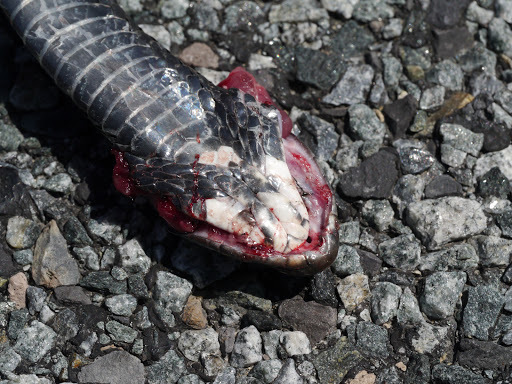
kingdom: Animalia
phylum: Chordata
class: Squamata
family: Colubridae
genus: Coluber
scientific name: Coluber constrictor
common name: Eastern racer
